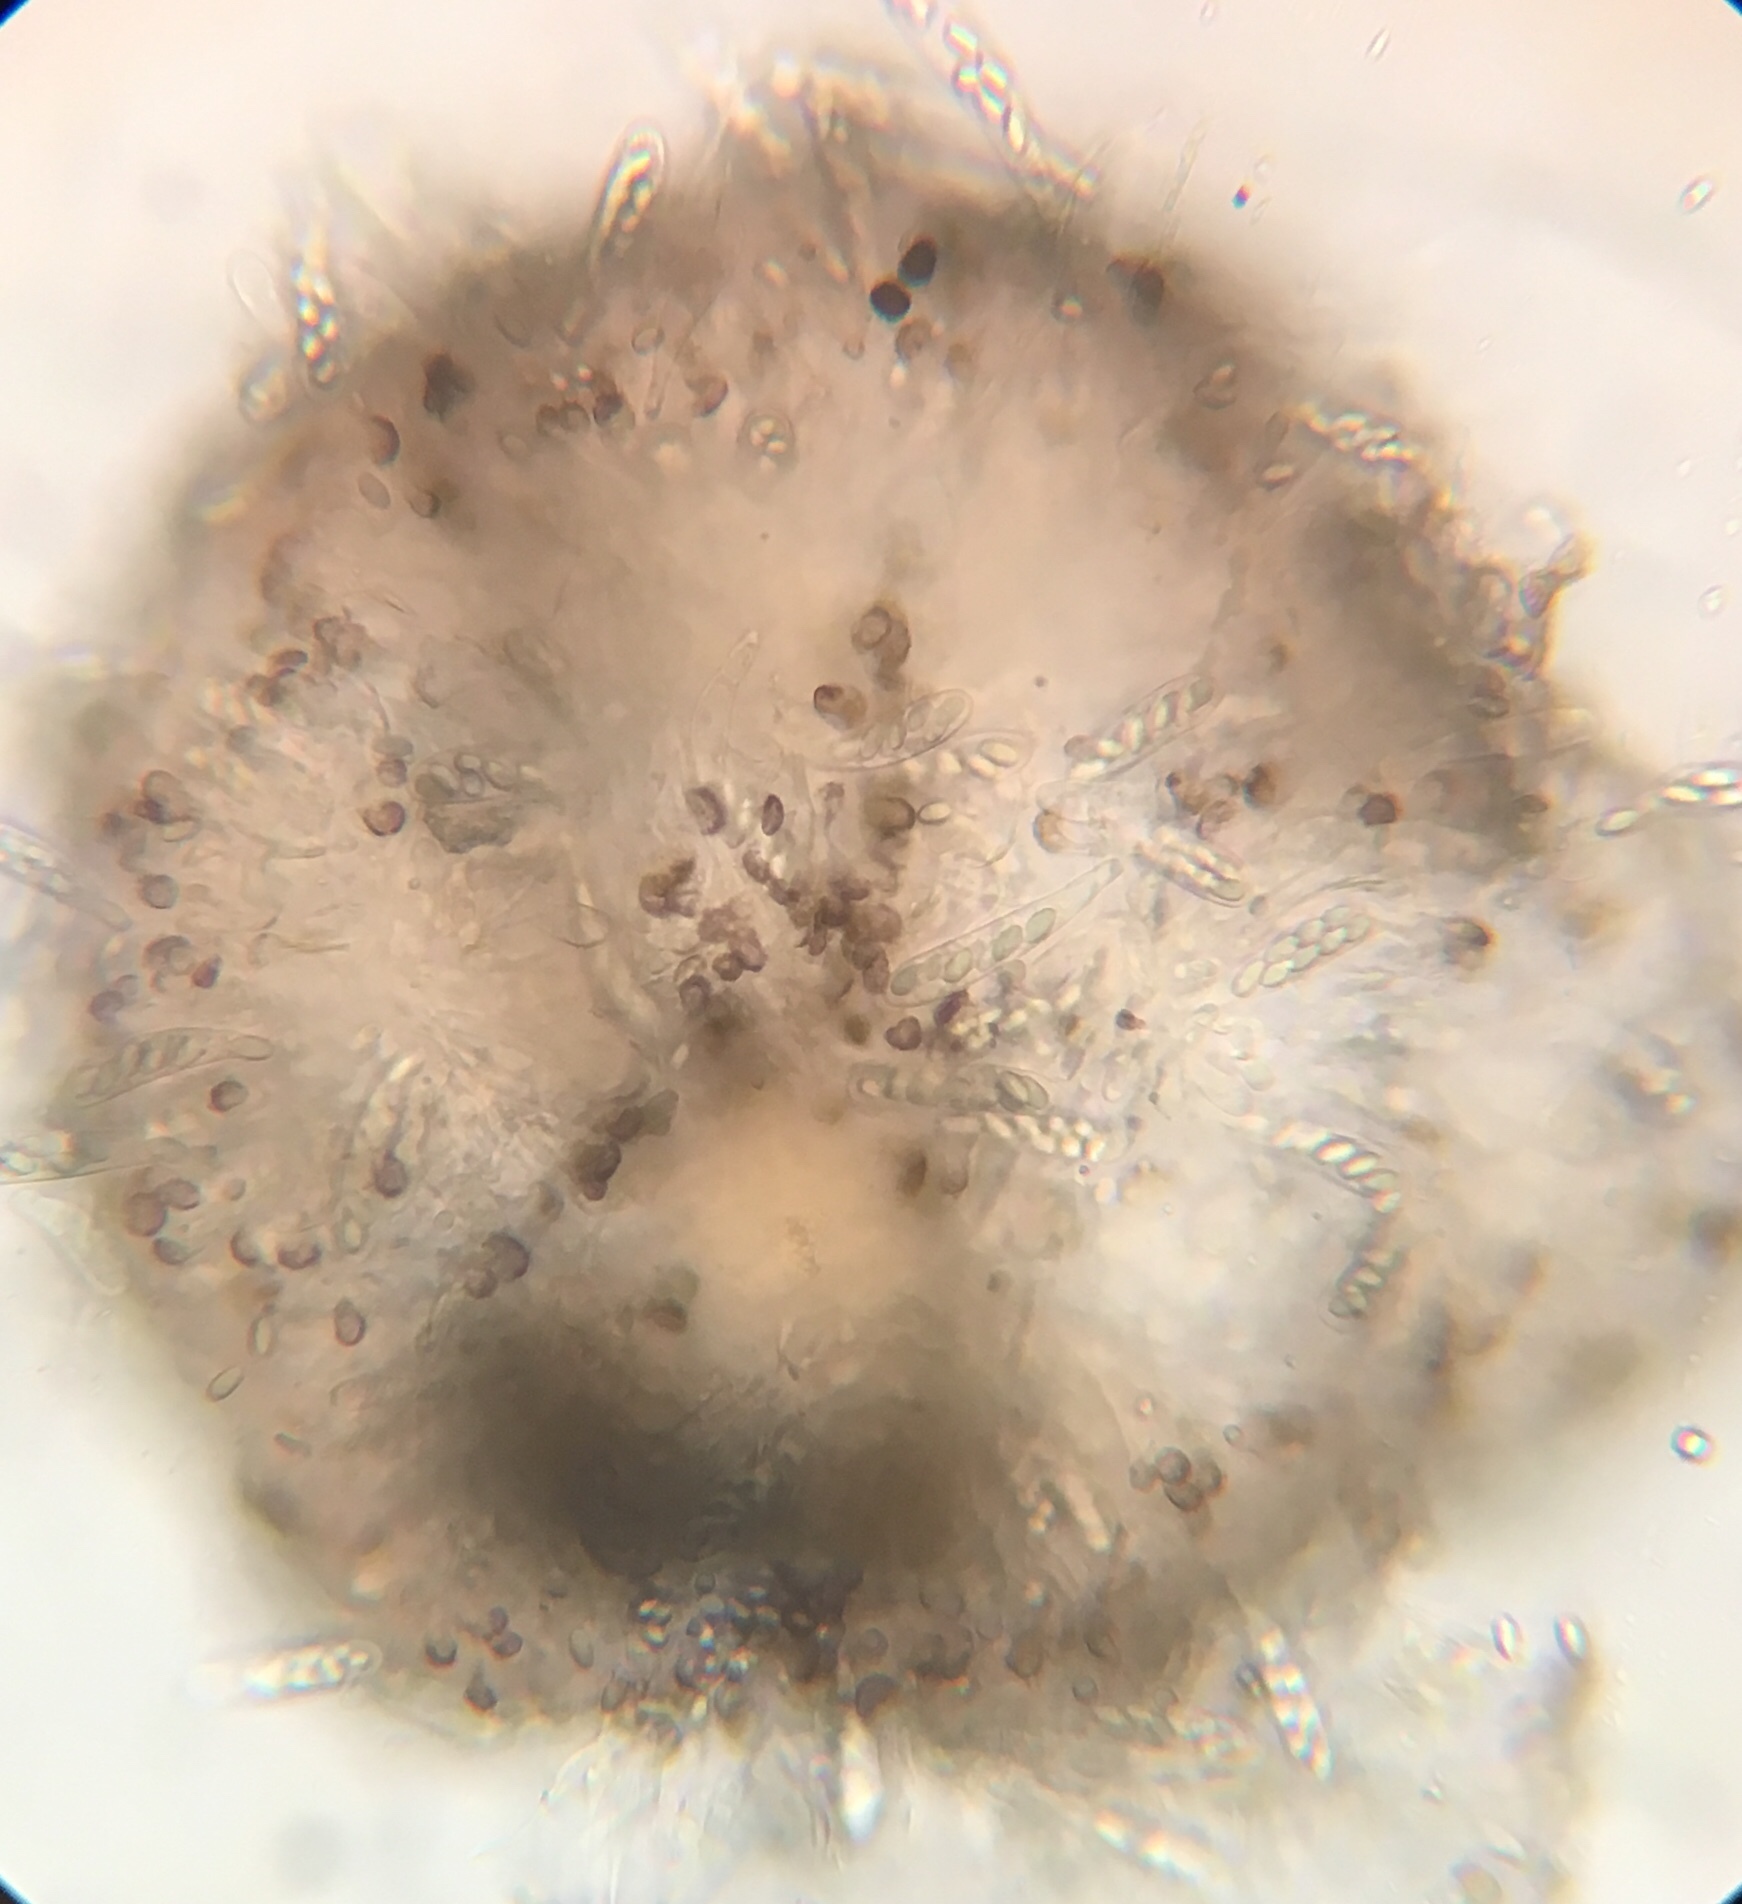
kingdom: Fungi
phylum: Ascomycota
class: Pezizomycetes
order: Pezizales
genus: Coprotus
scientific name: Coprotus lacteus
